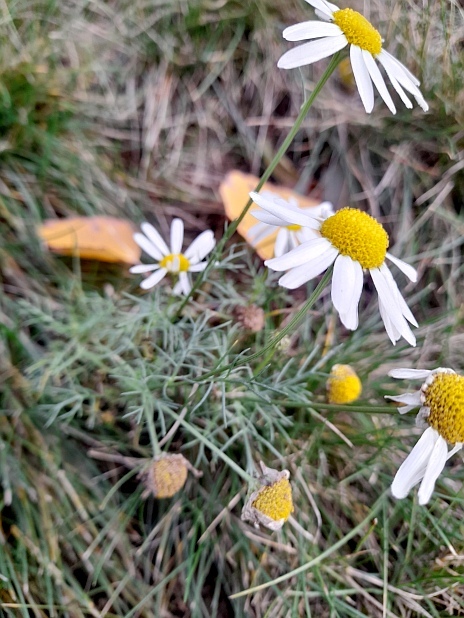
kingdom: Plantae
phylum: Tracheophyta
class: Magnoliopsida
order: Asterales
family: Asteraceae
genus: Tripleurospermum
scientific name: Tripleurospermum inodorum
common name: Scentless mayweed
